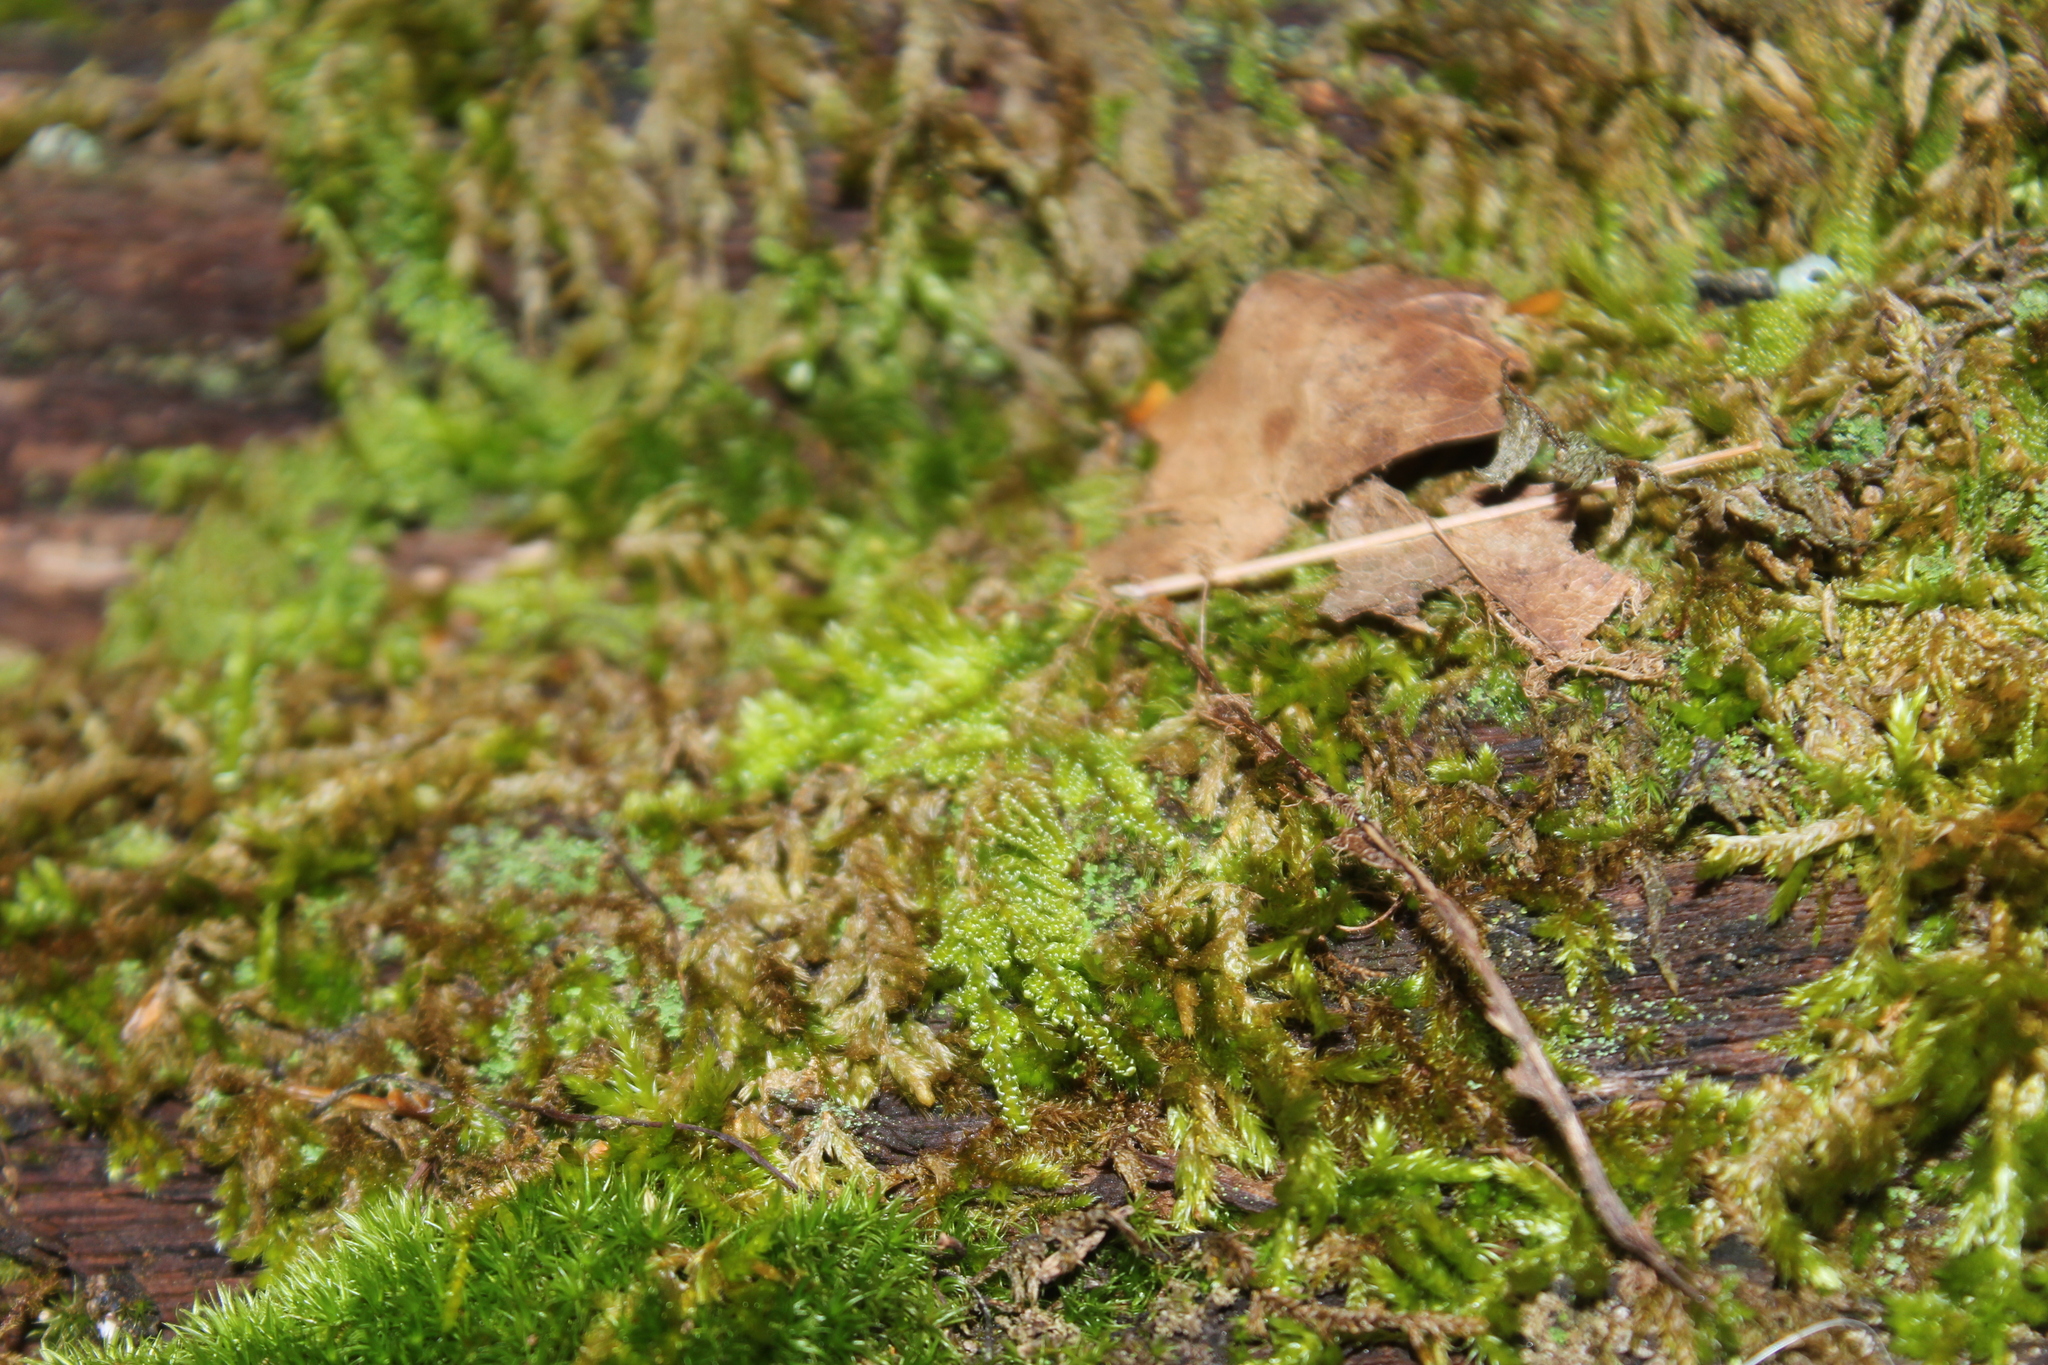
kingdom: Plantae
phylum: Bryophyta
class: Bryopsida
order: Hypnales
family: Callicladiaceae
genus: Callicladium
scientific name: Callicladium imponens
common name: Brocade moss
